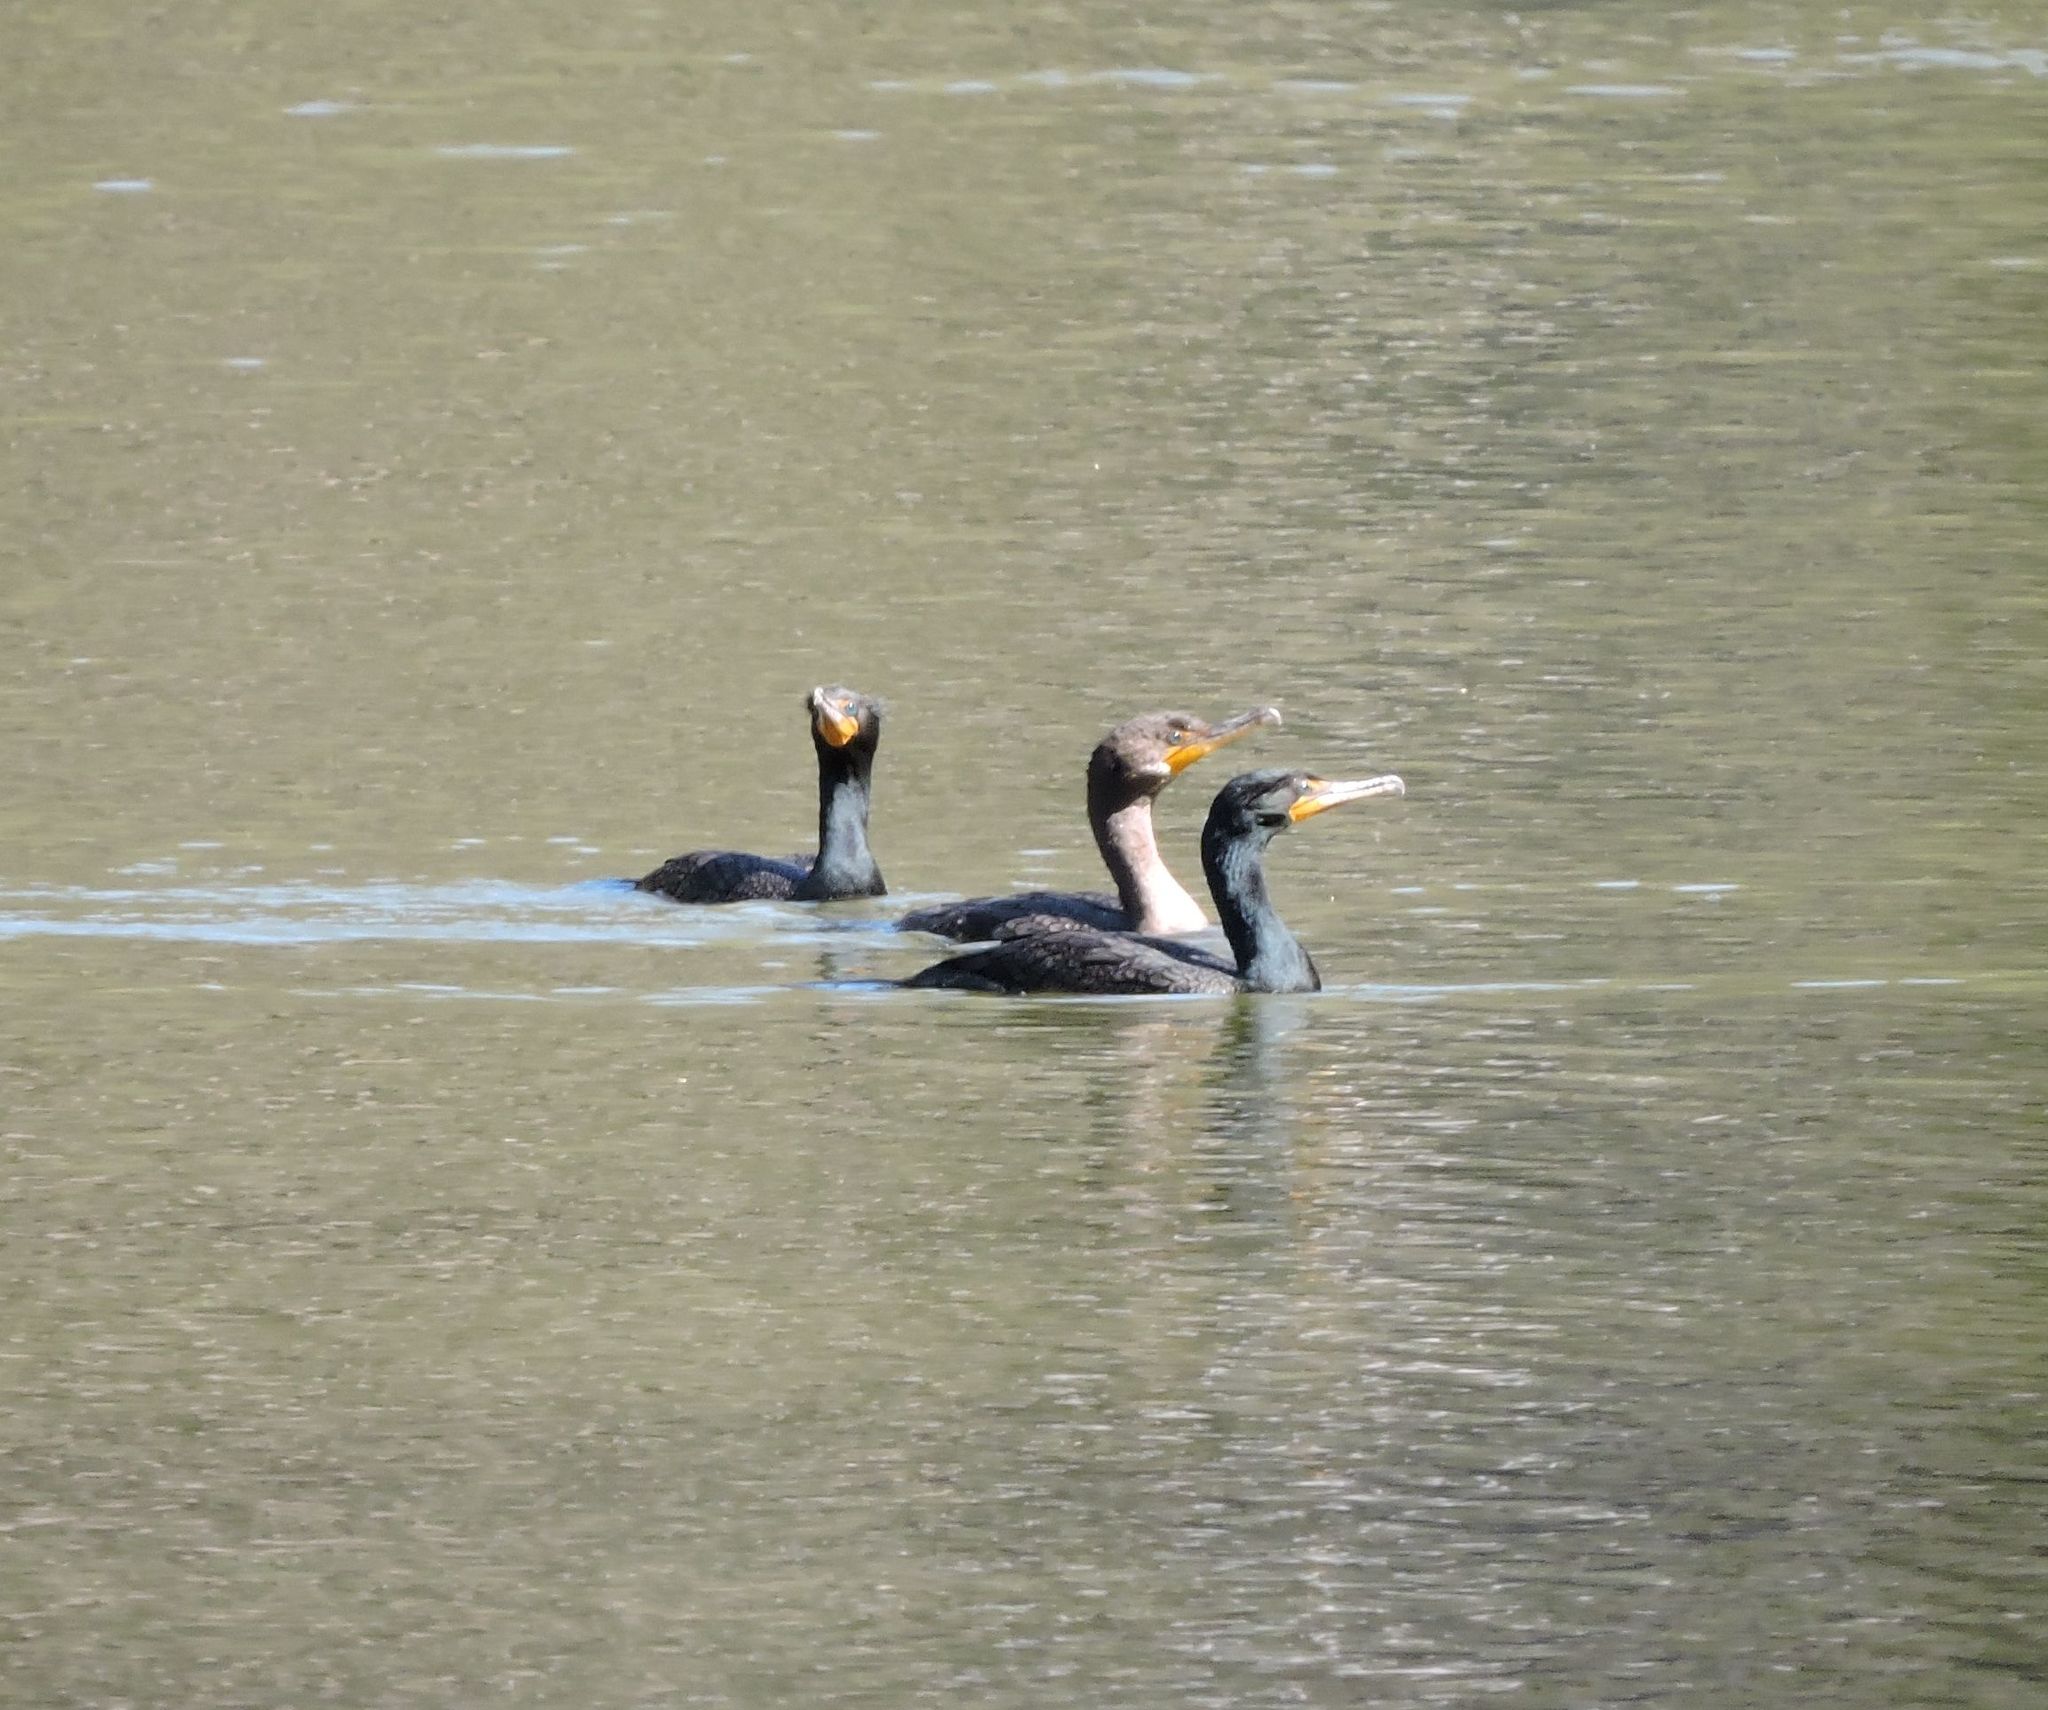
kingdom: Animalia
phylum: Chordata
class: Aves
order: Suliformes
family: Phalacrocoracidae
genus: Phalacrocorax
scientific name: Phalacrocorax auritus
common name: Double-crested cormorant
